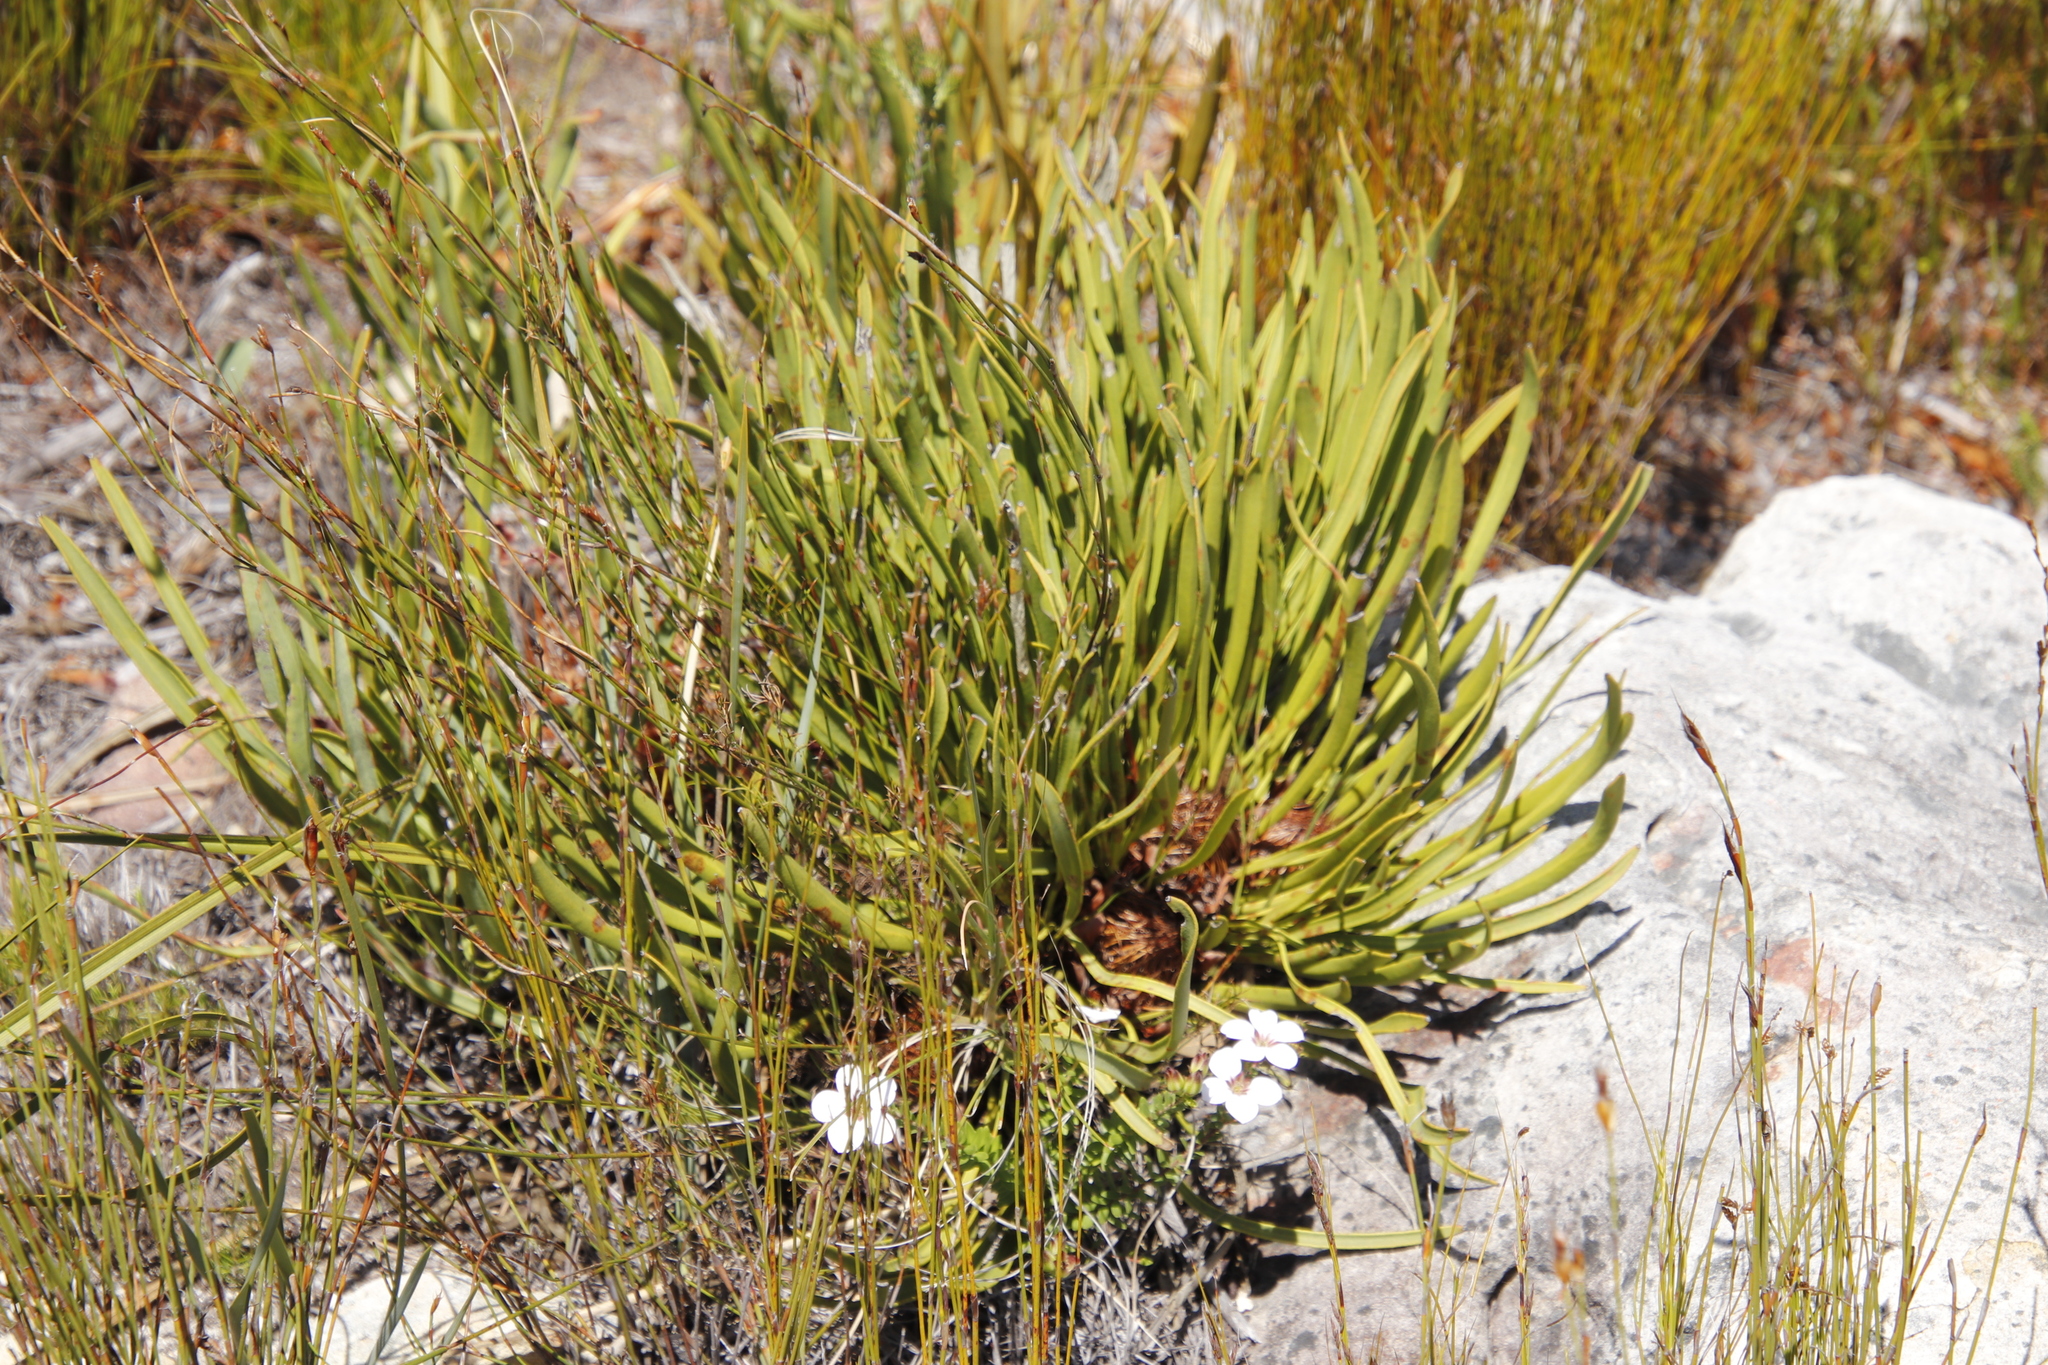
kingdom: Plantae
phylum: Tracheophyta
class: Magnoliopsida
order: Proteales
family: Proteaceae
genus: Protea
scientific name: Protea scabra
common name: Sandpaper-leaf sugarbush
